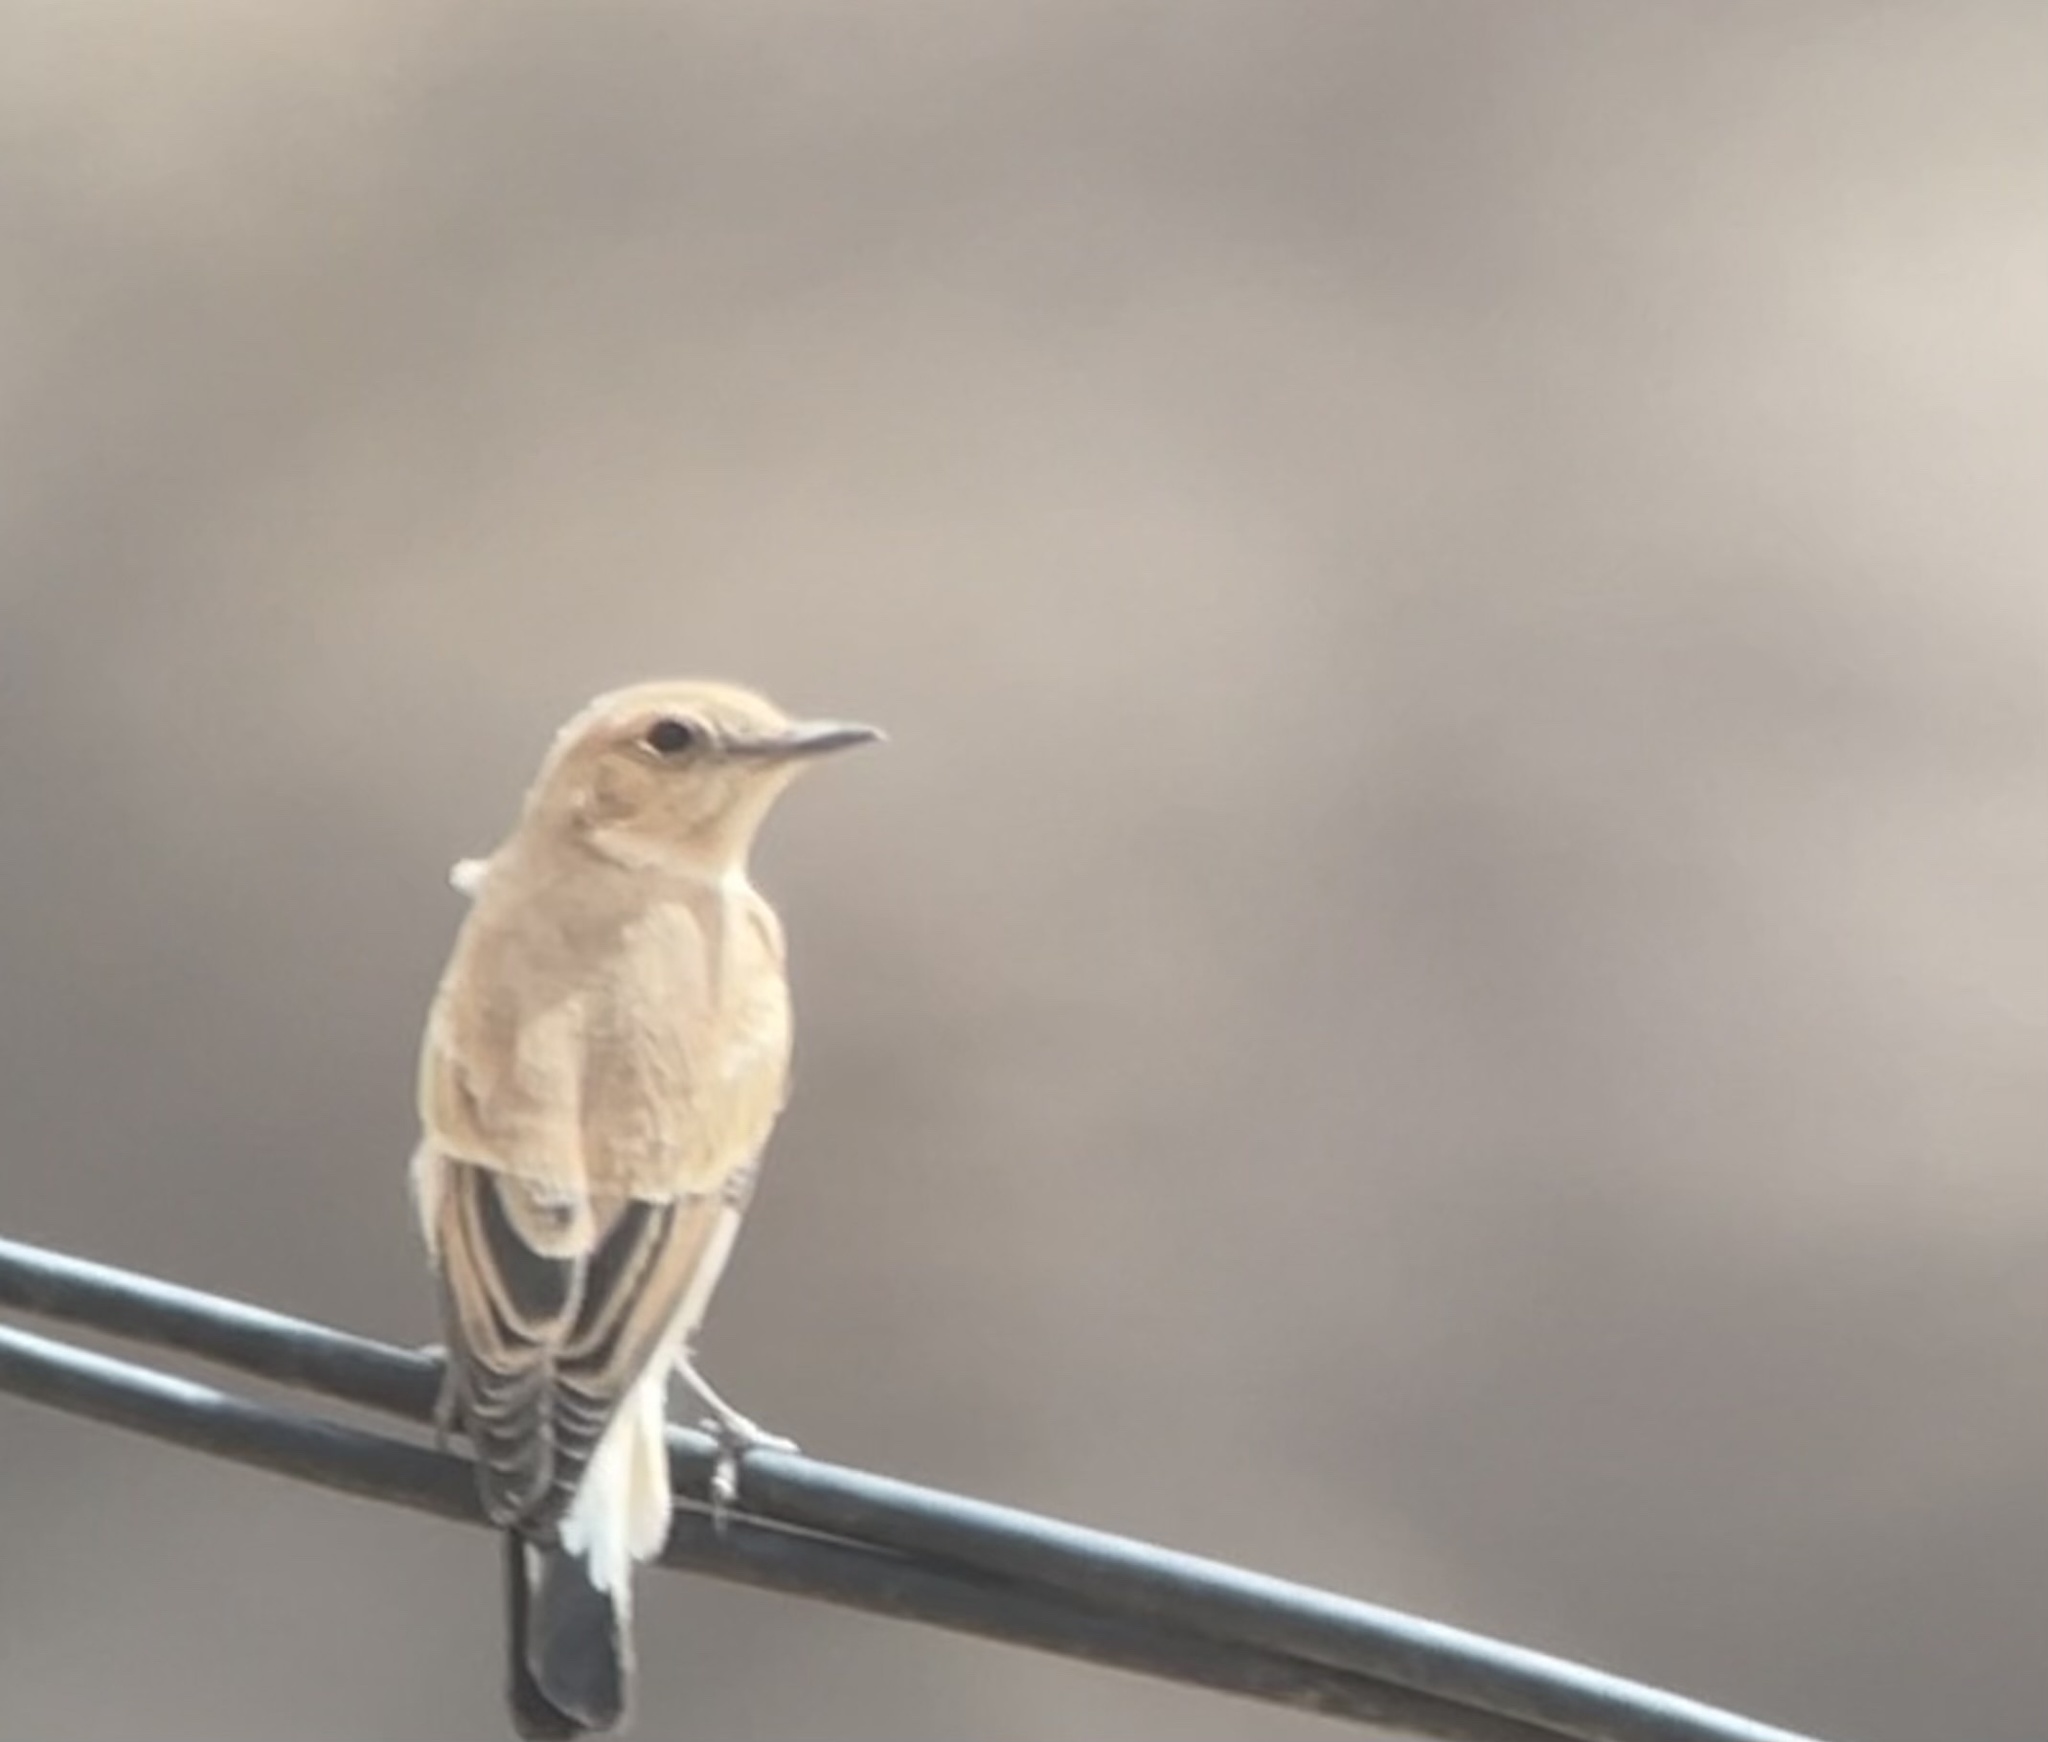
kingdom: Animalia
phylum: Chordata
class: Aves
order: Passeriformes
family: Muscicapidae
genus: Oenanthe
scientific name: Oenanthe deserti
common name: Desert wheatear
